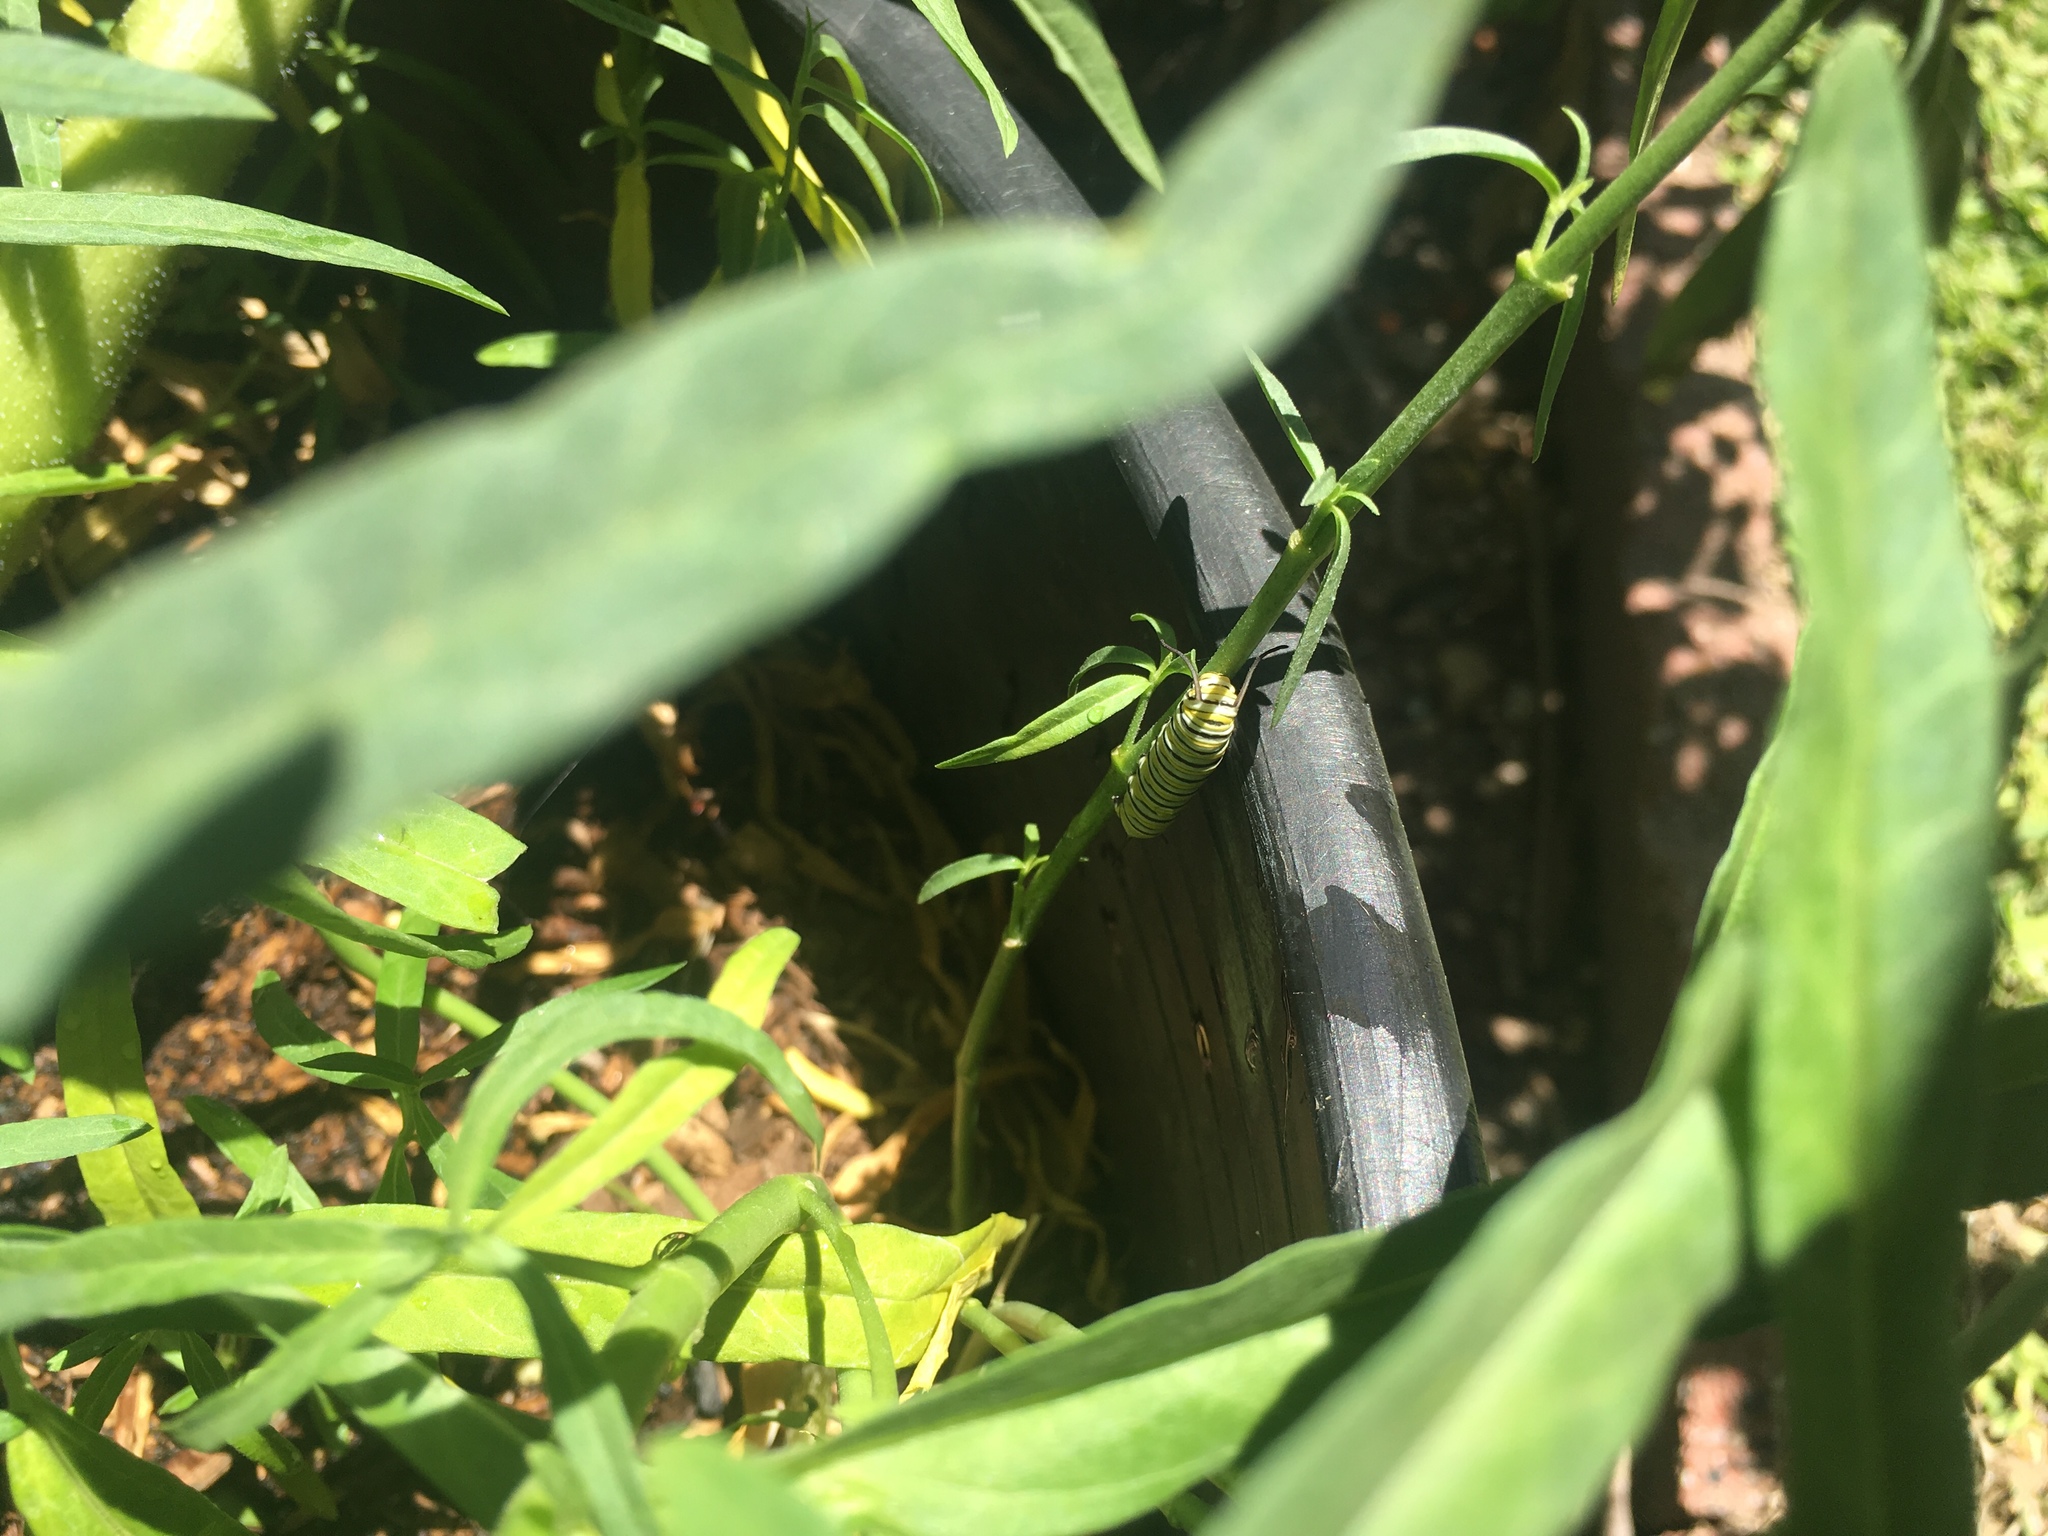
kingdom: Animalia
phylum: Arthropoda
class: Insecta
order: Lepidoptera
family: Nymphalidae
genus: Danaus
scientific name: Danaus plexippus
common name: Monarch
